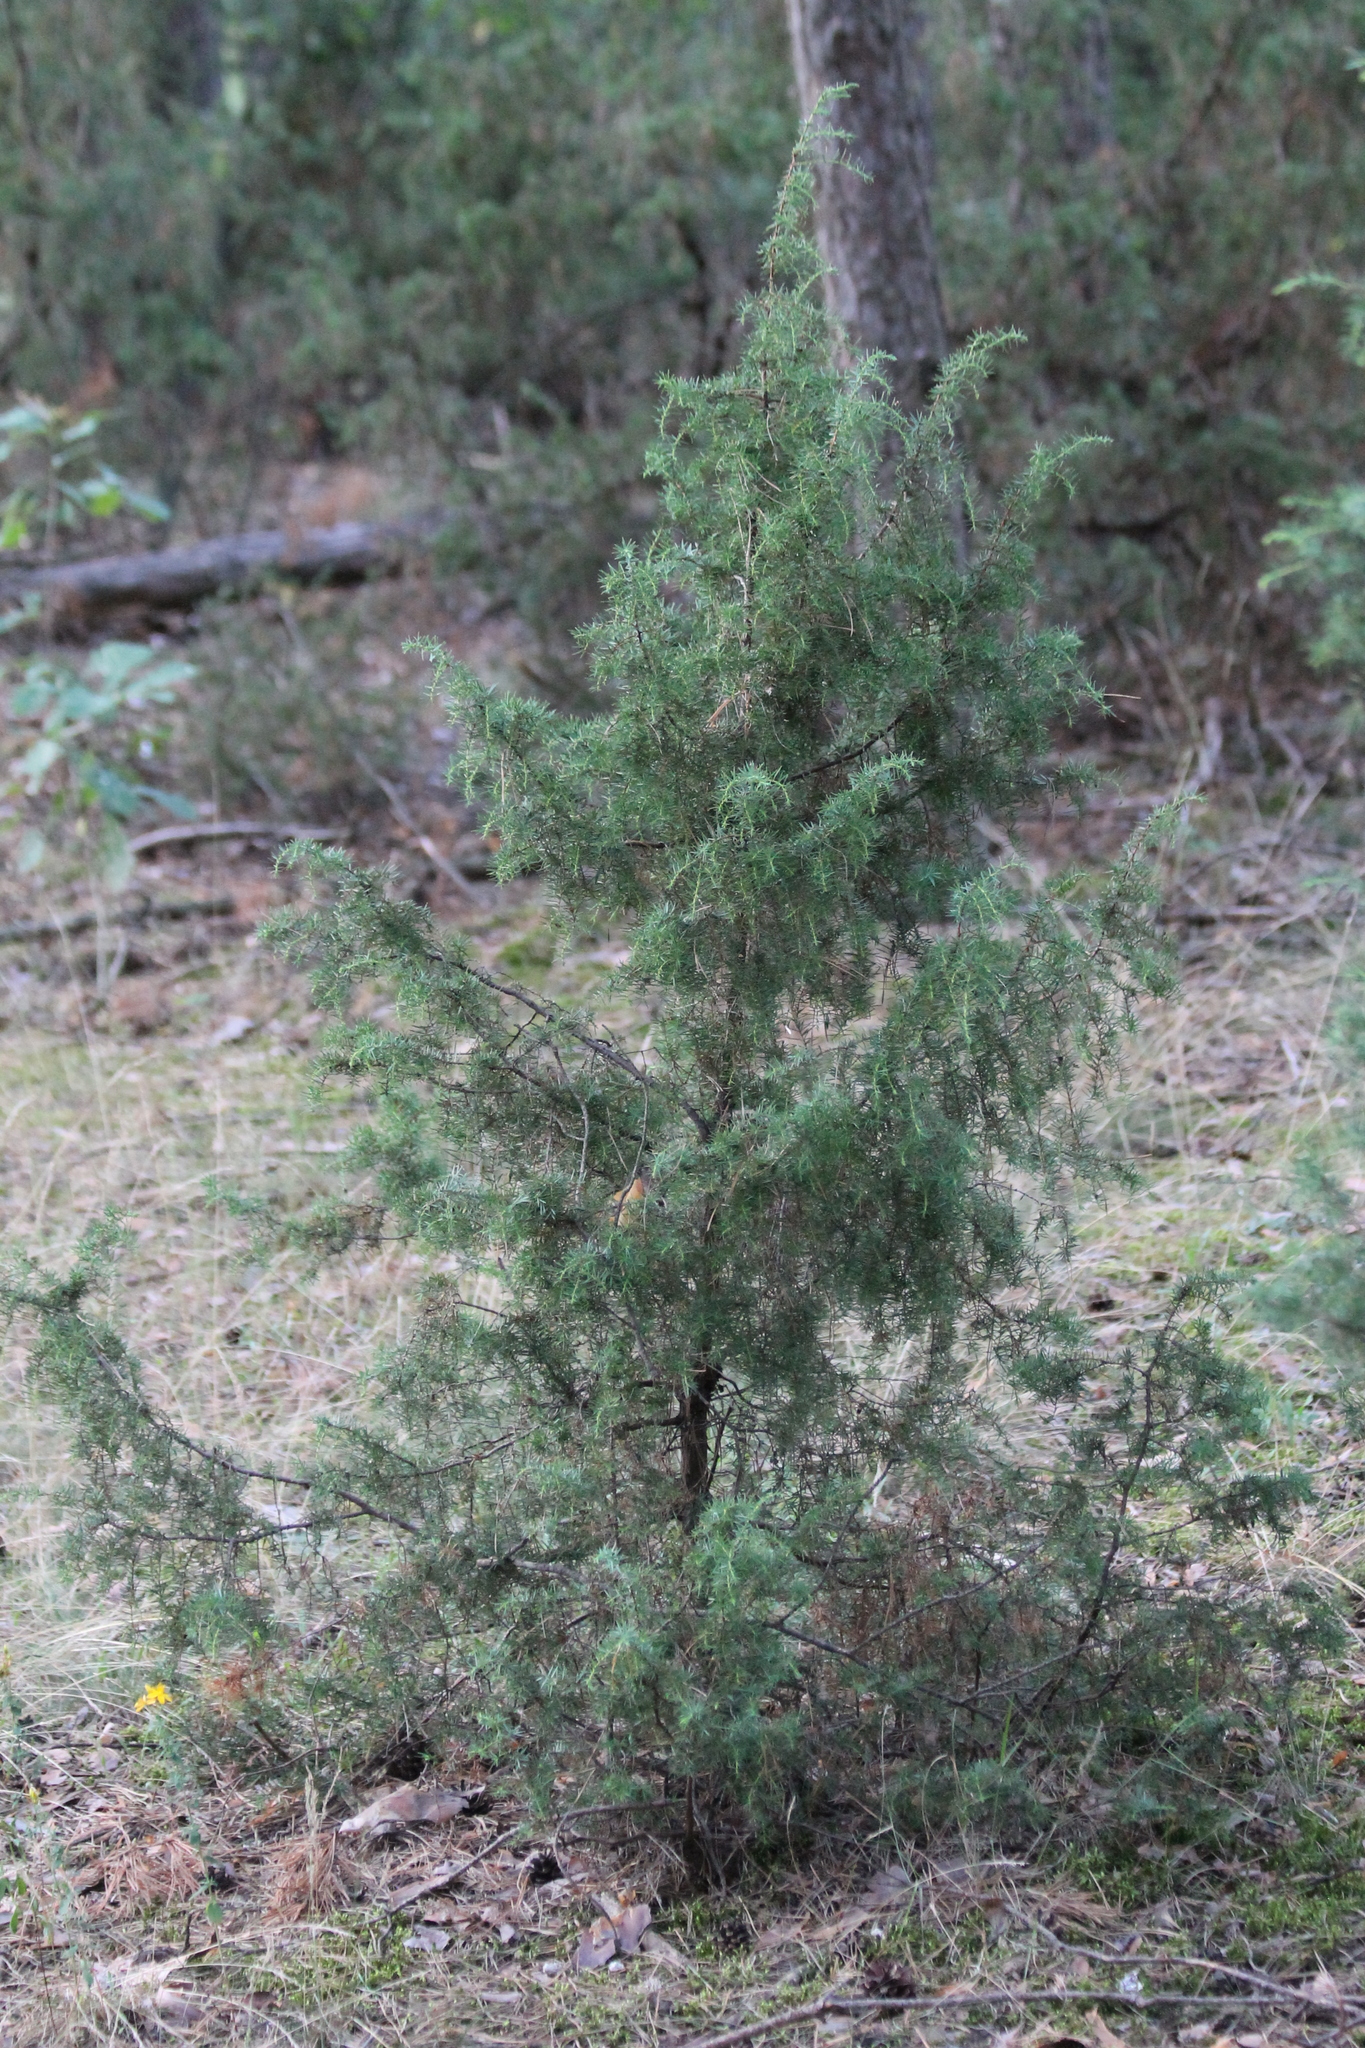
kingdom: Plantae
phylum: Tracheophyta
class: Pinopsida
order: Pinales
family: Cupressaceae
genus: Juniperus
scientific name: Juniperus communis
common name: Common juniper
